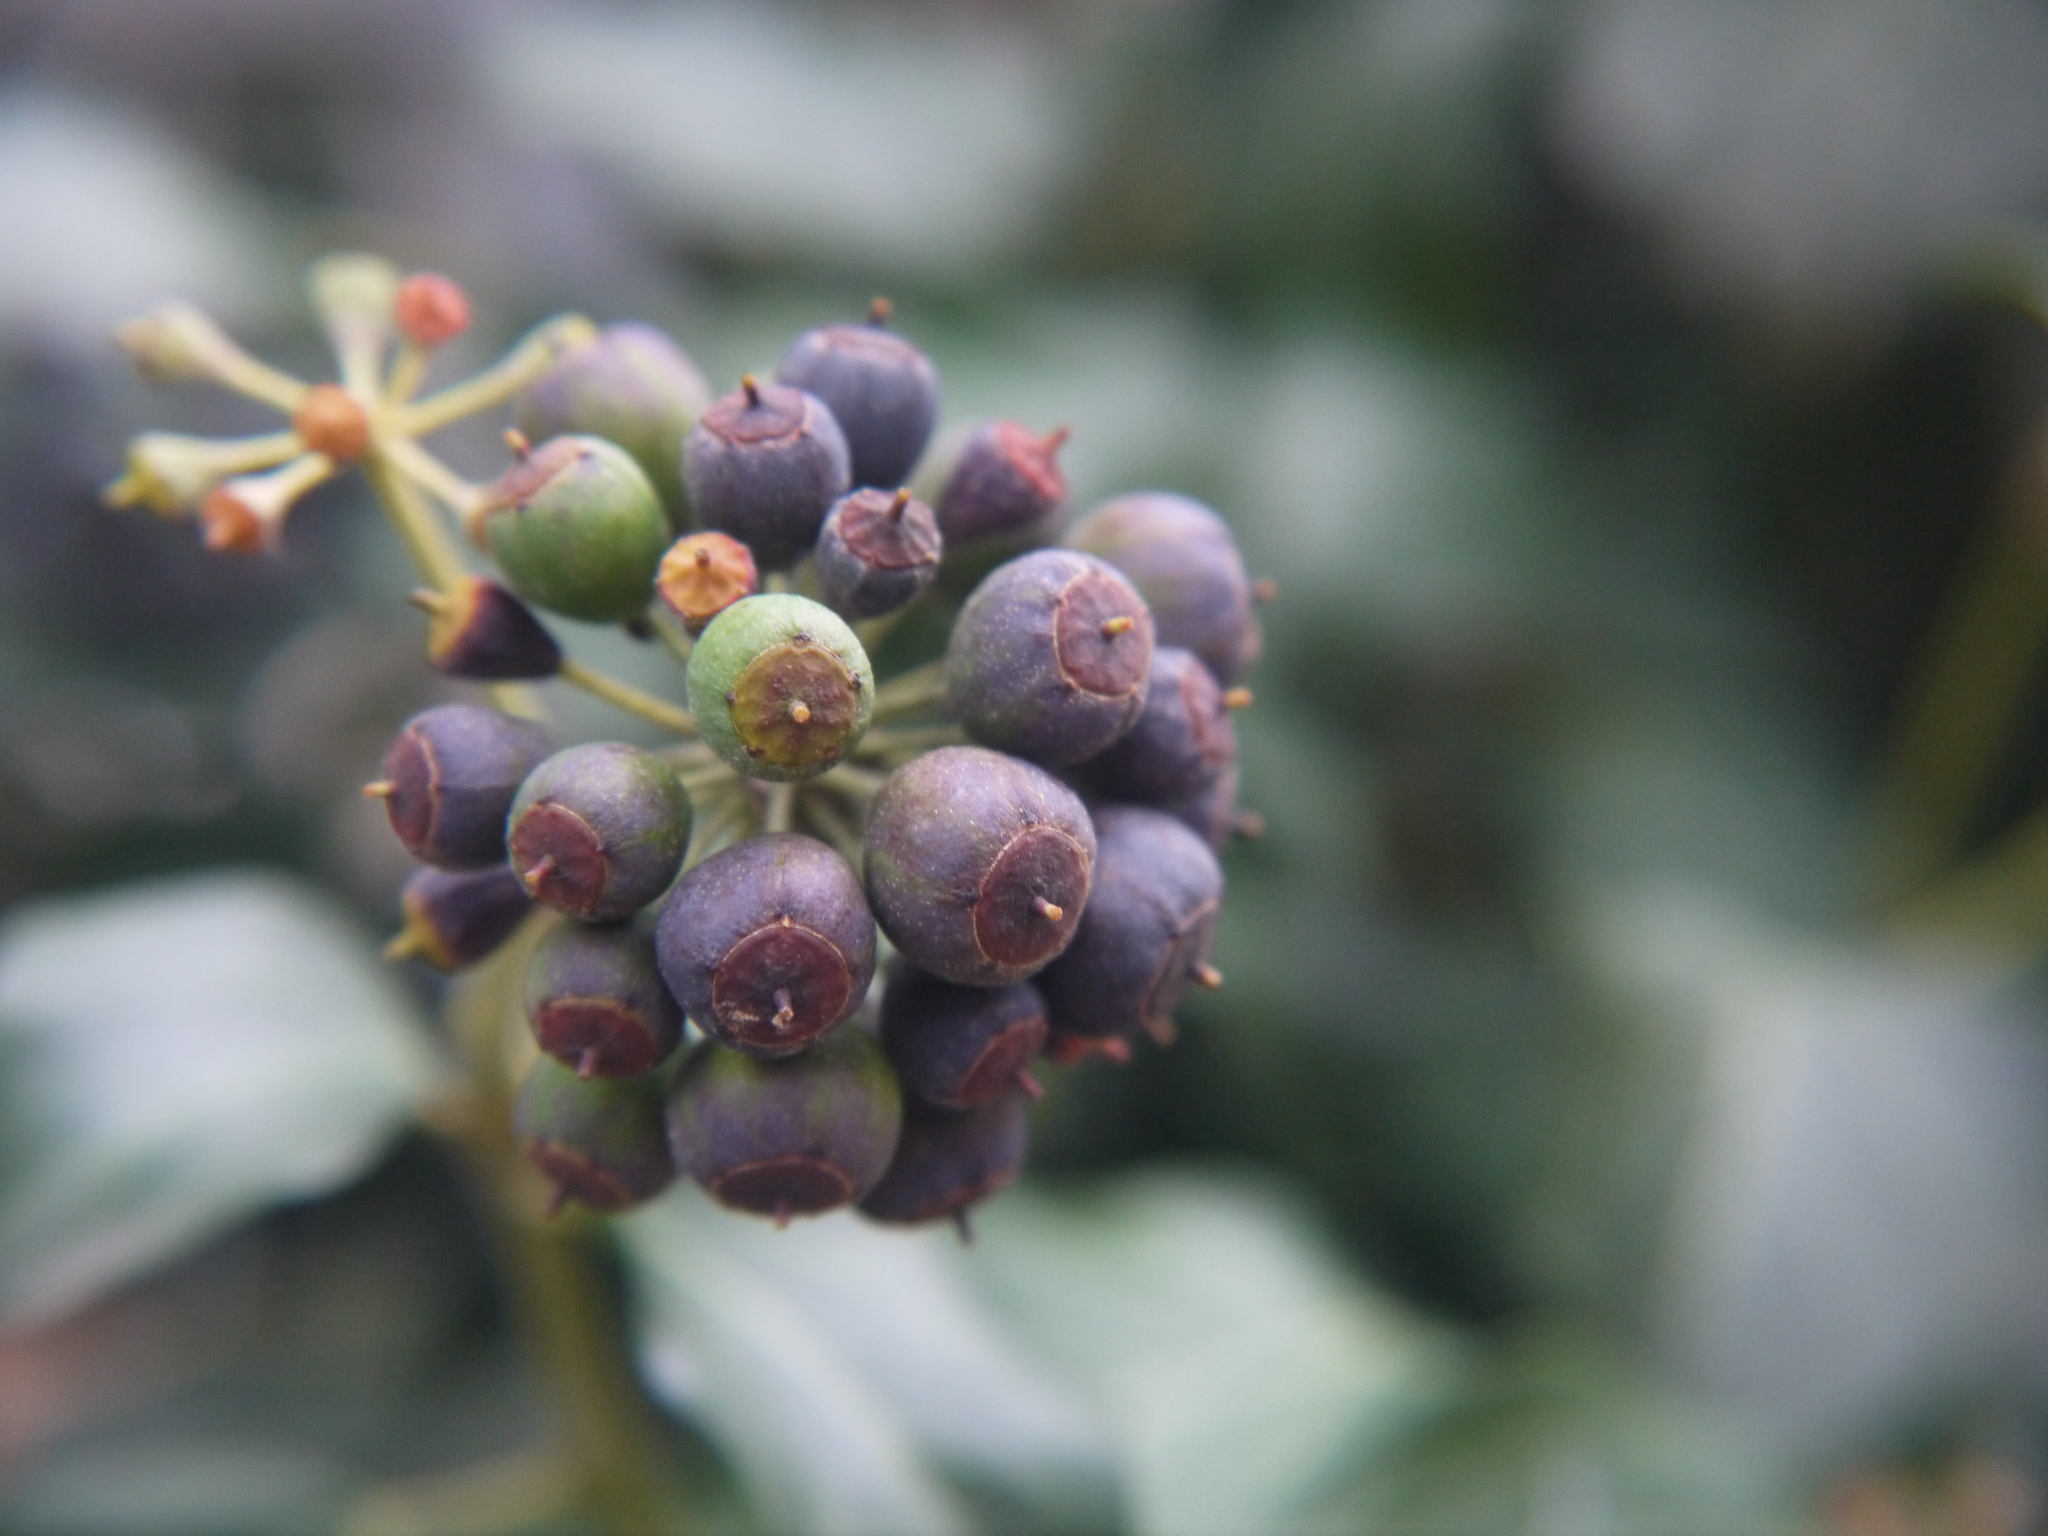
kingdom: Plantae
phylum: Tracheophyta
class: Magnoliopsida
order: Apiales
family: Araliaceae
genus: Hedera
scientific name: Hedera helix
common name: Ivy
